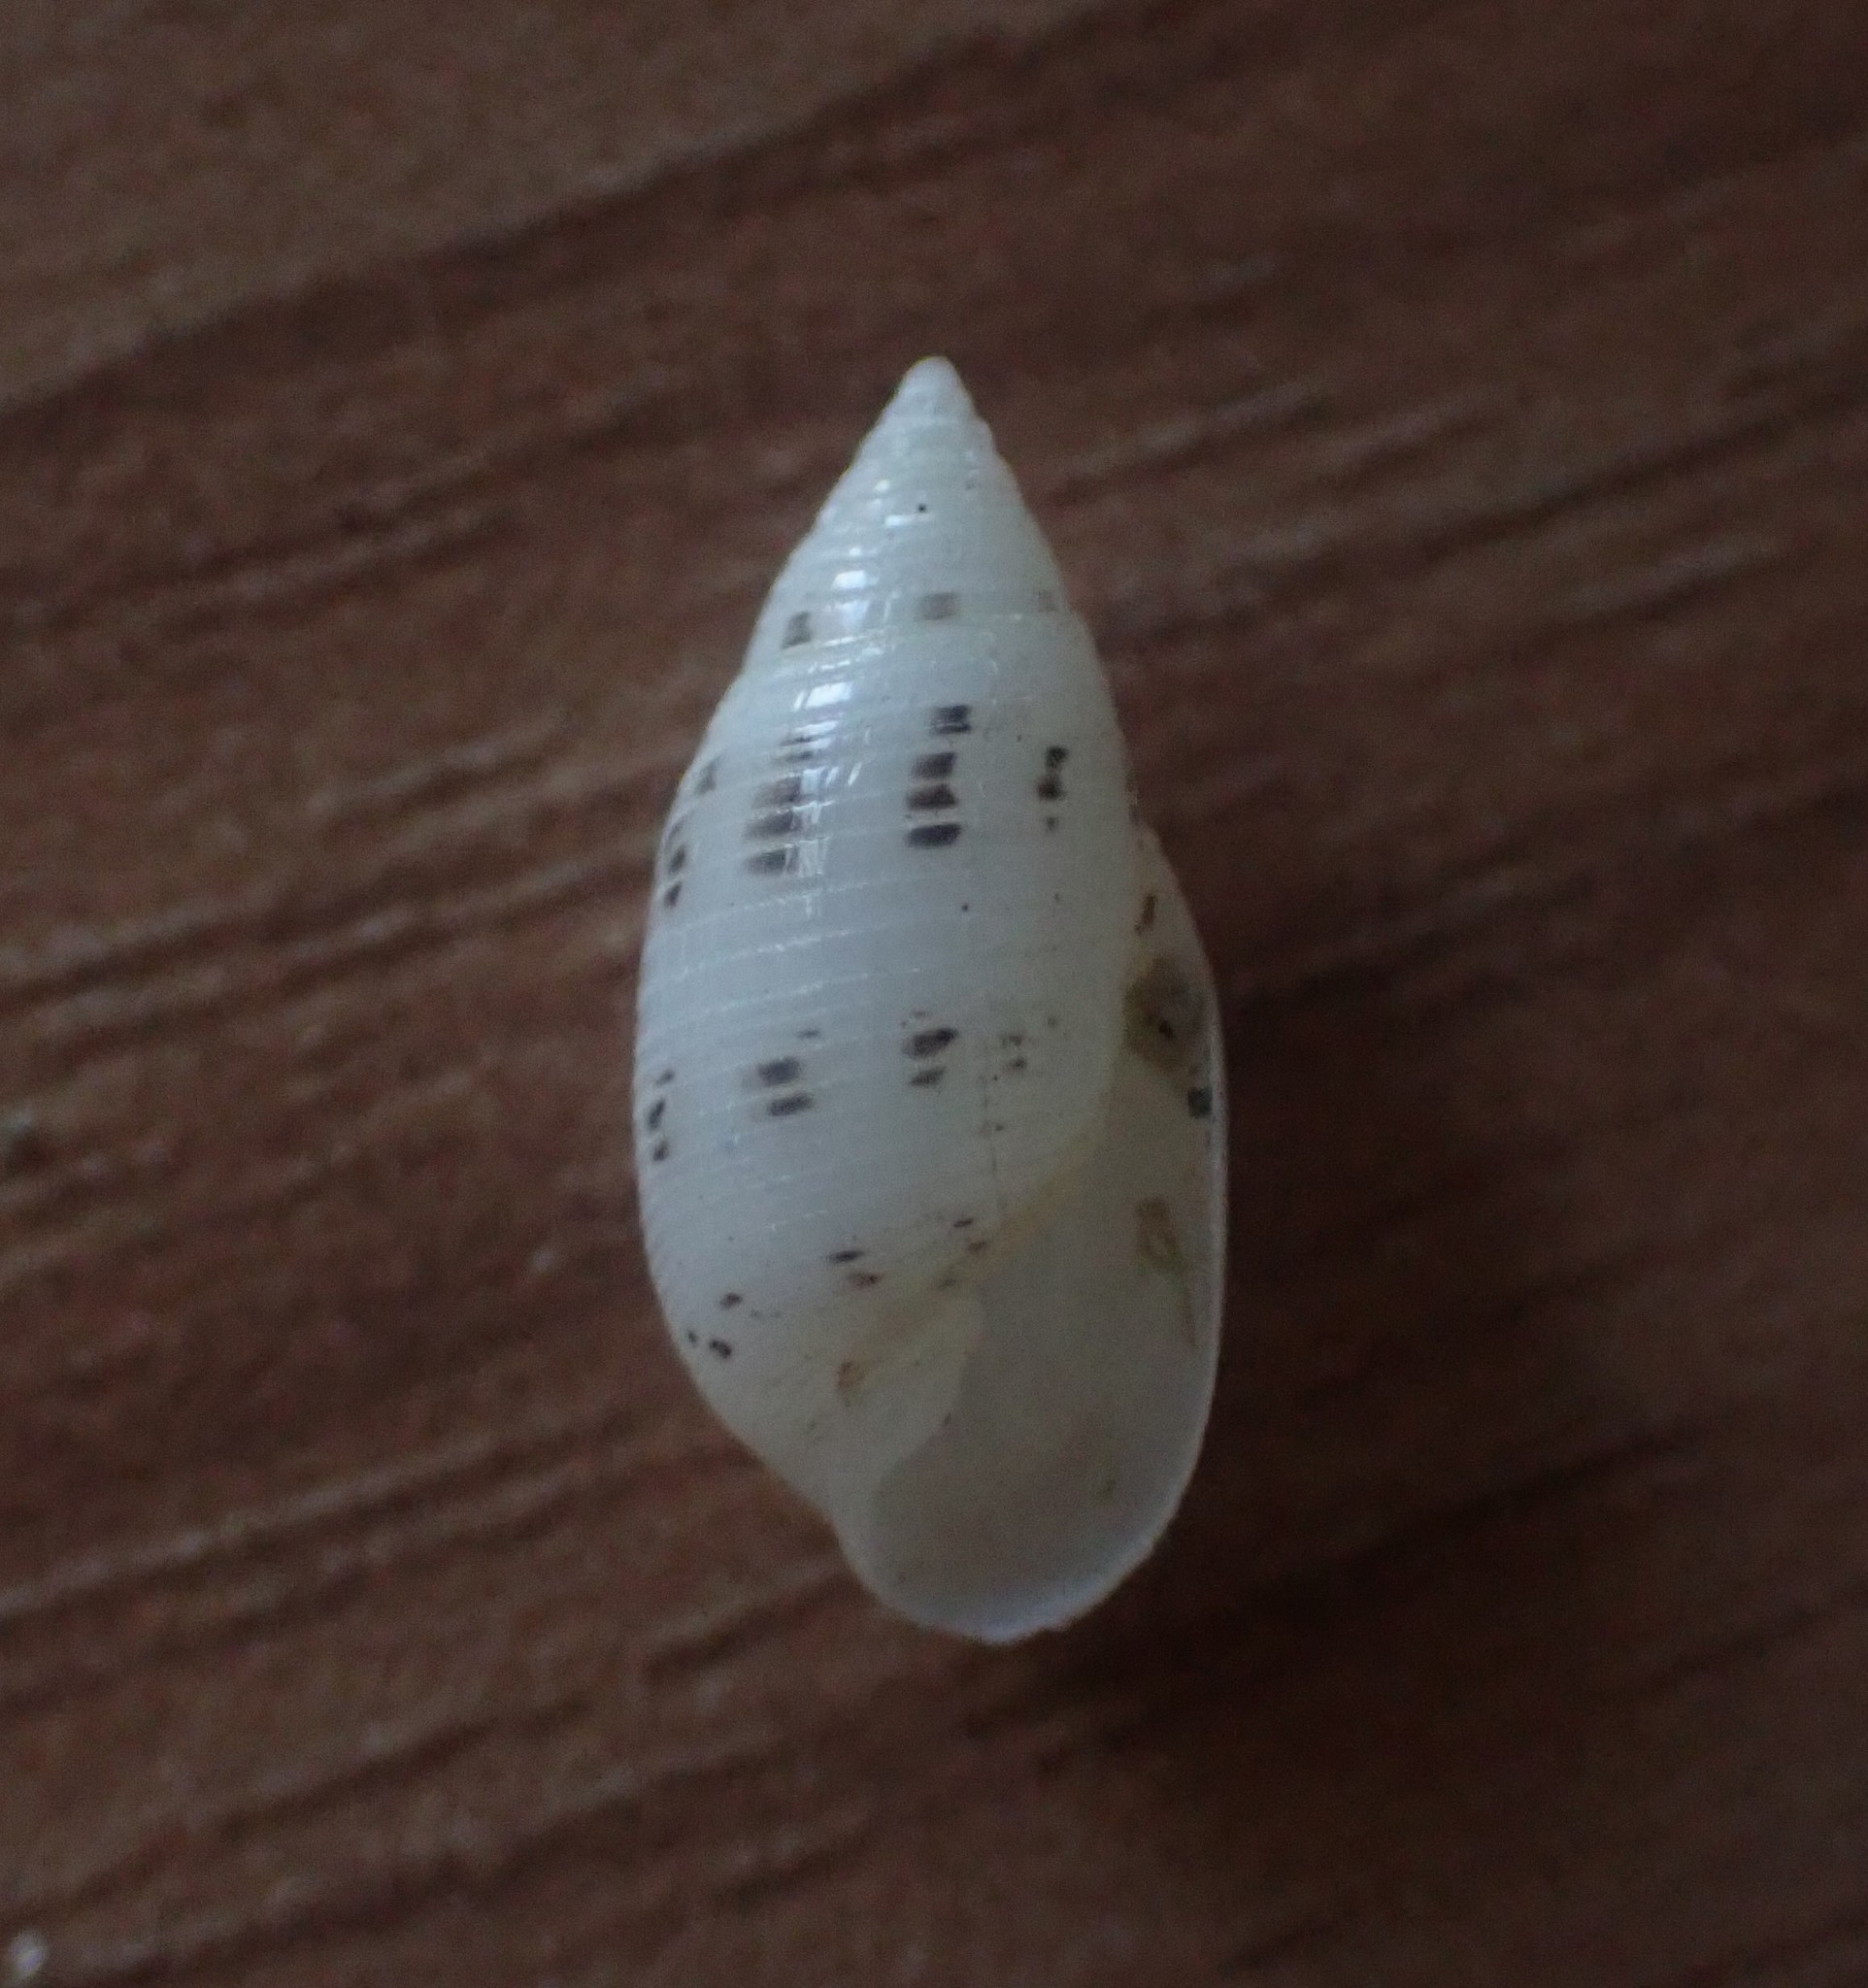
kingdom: Animalia
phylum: Mollusca
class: Gastropoda
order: Cephalaspidea
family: Acteonidae
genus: Pupa
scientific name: Pupa affinis
